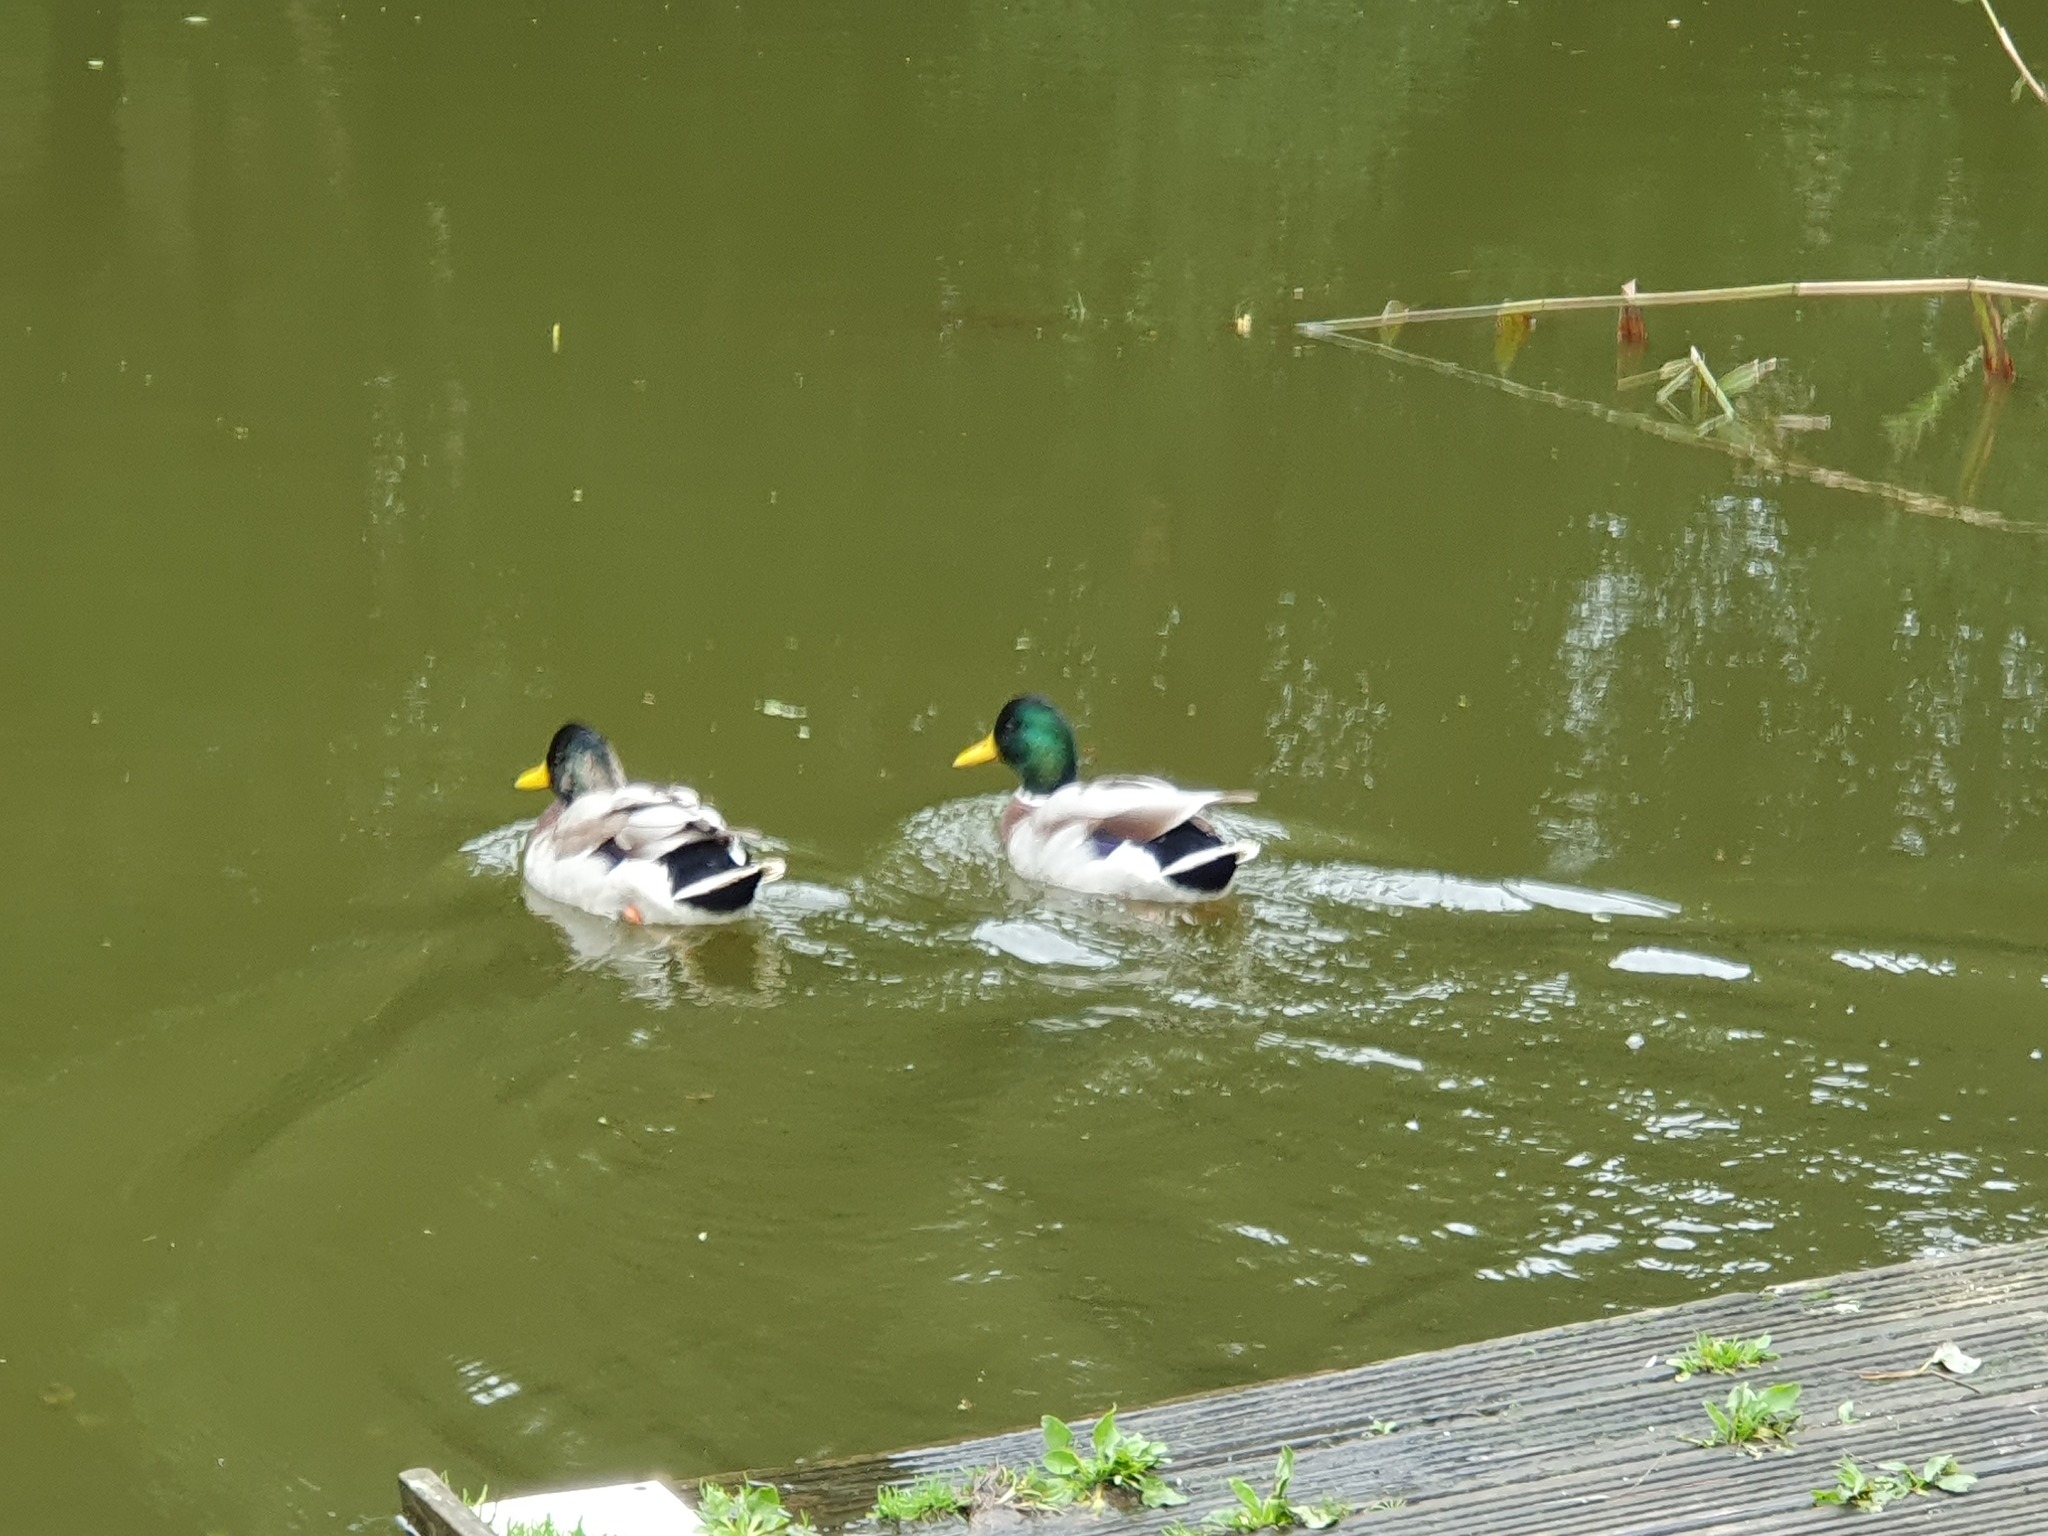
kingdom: Animalia
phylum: Chordata
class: Aves
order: Anseriformes
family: Anatidae
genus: Anas
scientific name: Anas platyrhynchos
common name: Mallard
